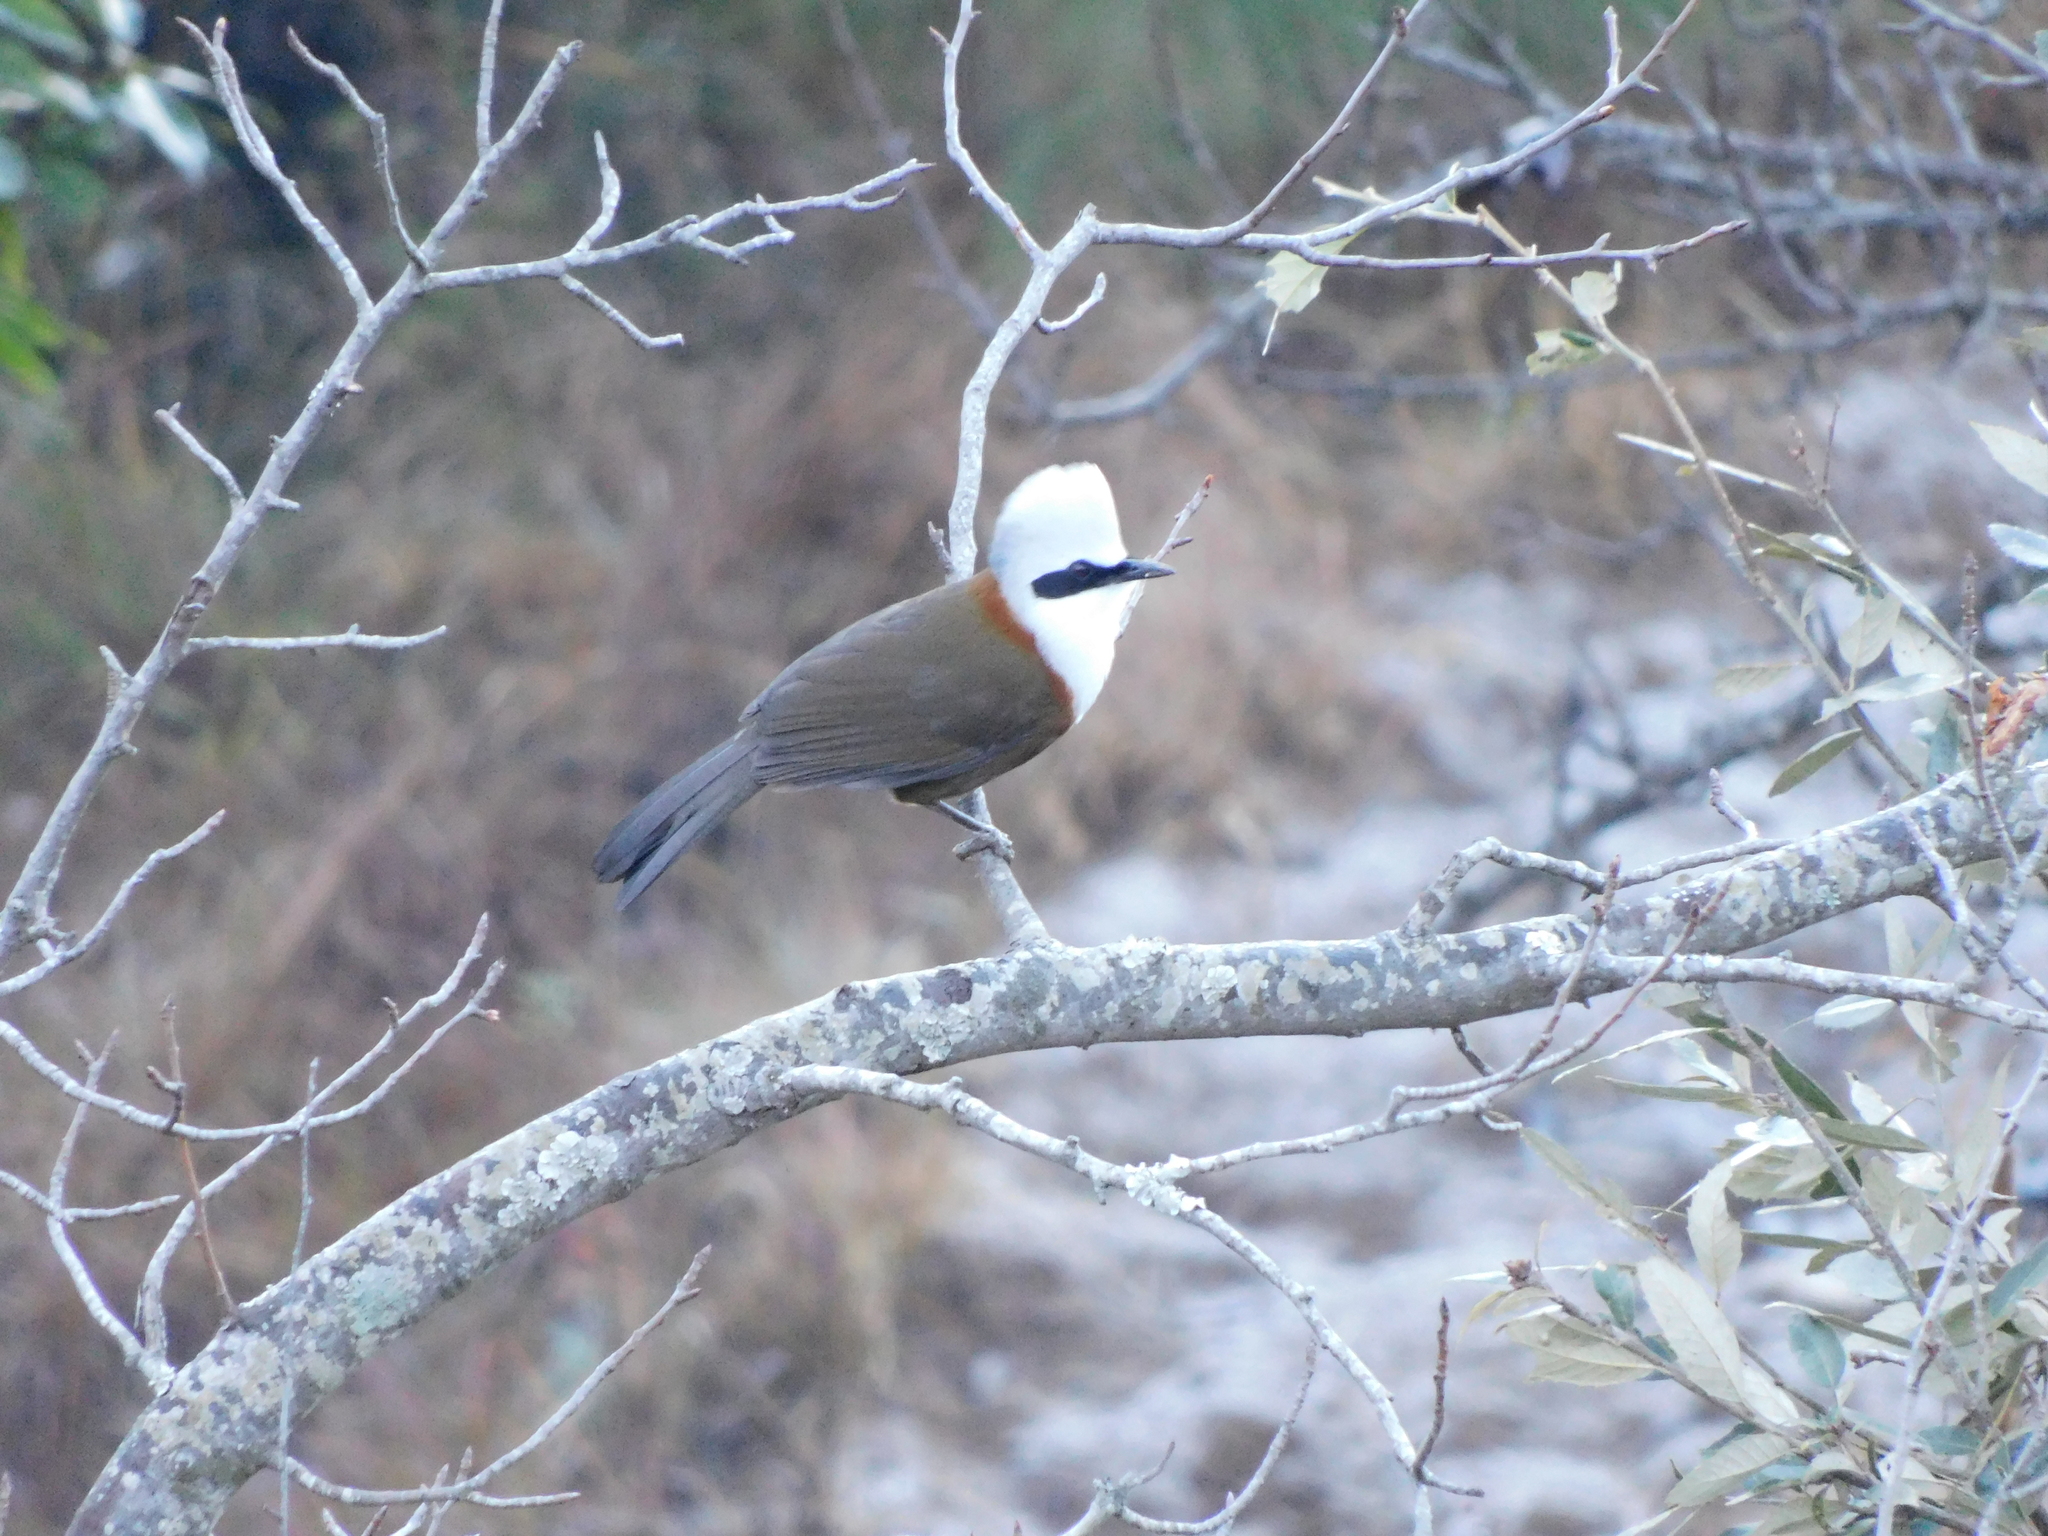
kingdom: Animalia
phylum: Chordata
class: Aves
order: Passeriformes
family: Leiothrichidae
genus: Garrulax
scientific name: Garrulax leucolophus
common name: White-crested laughingthrush
